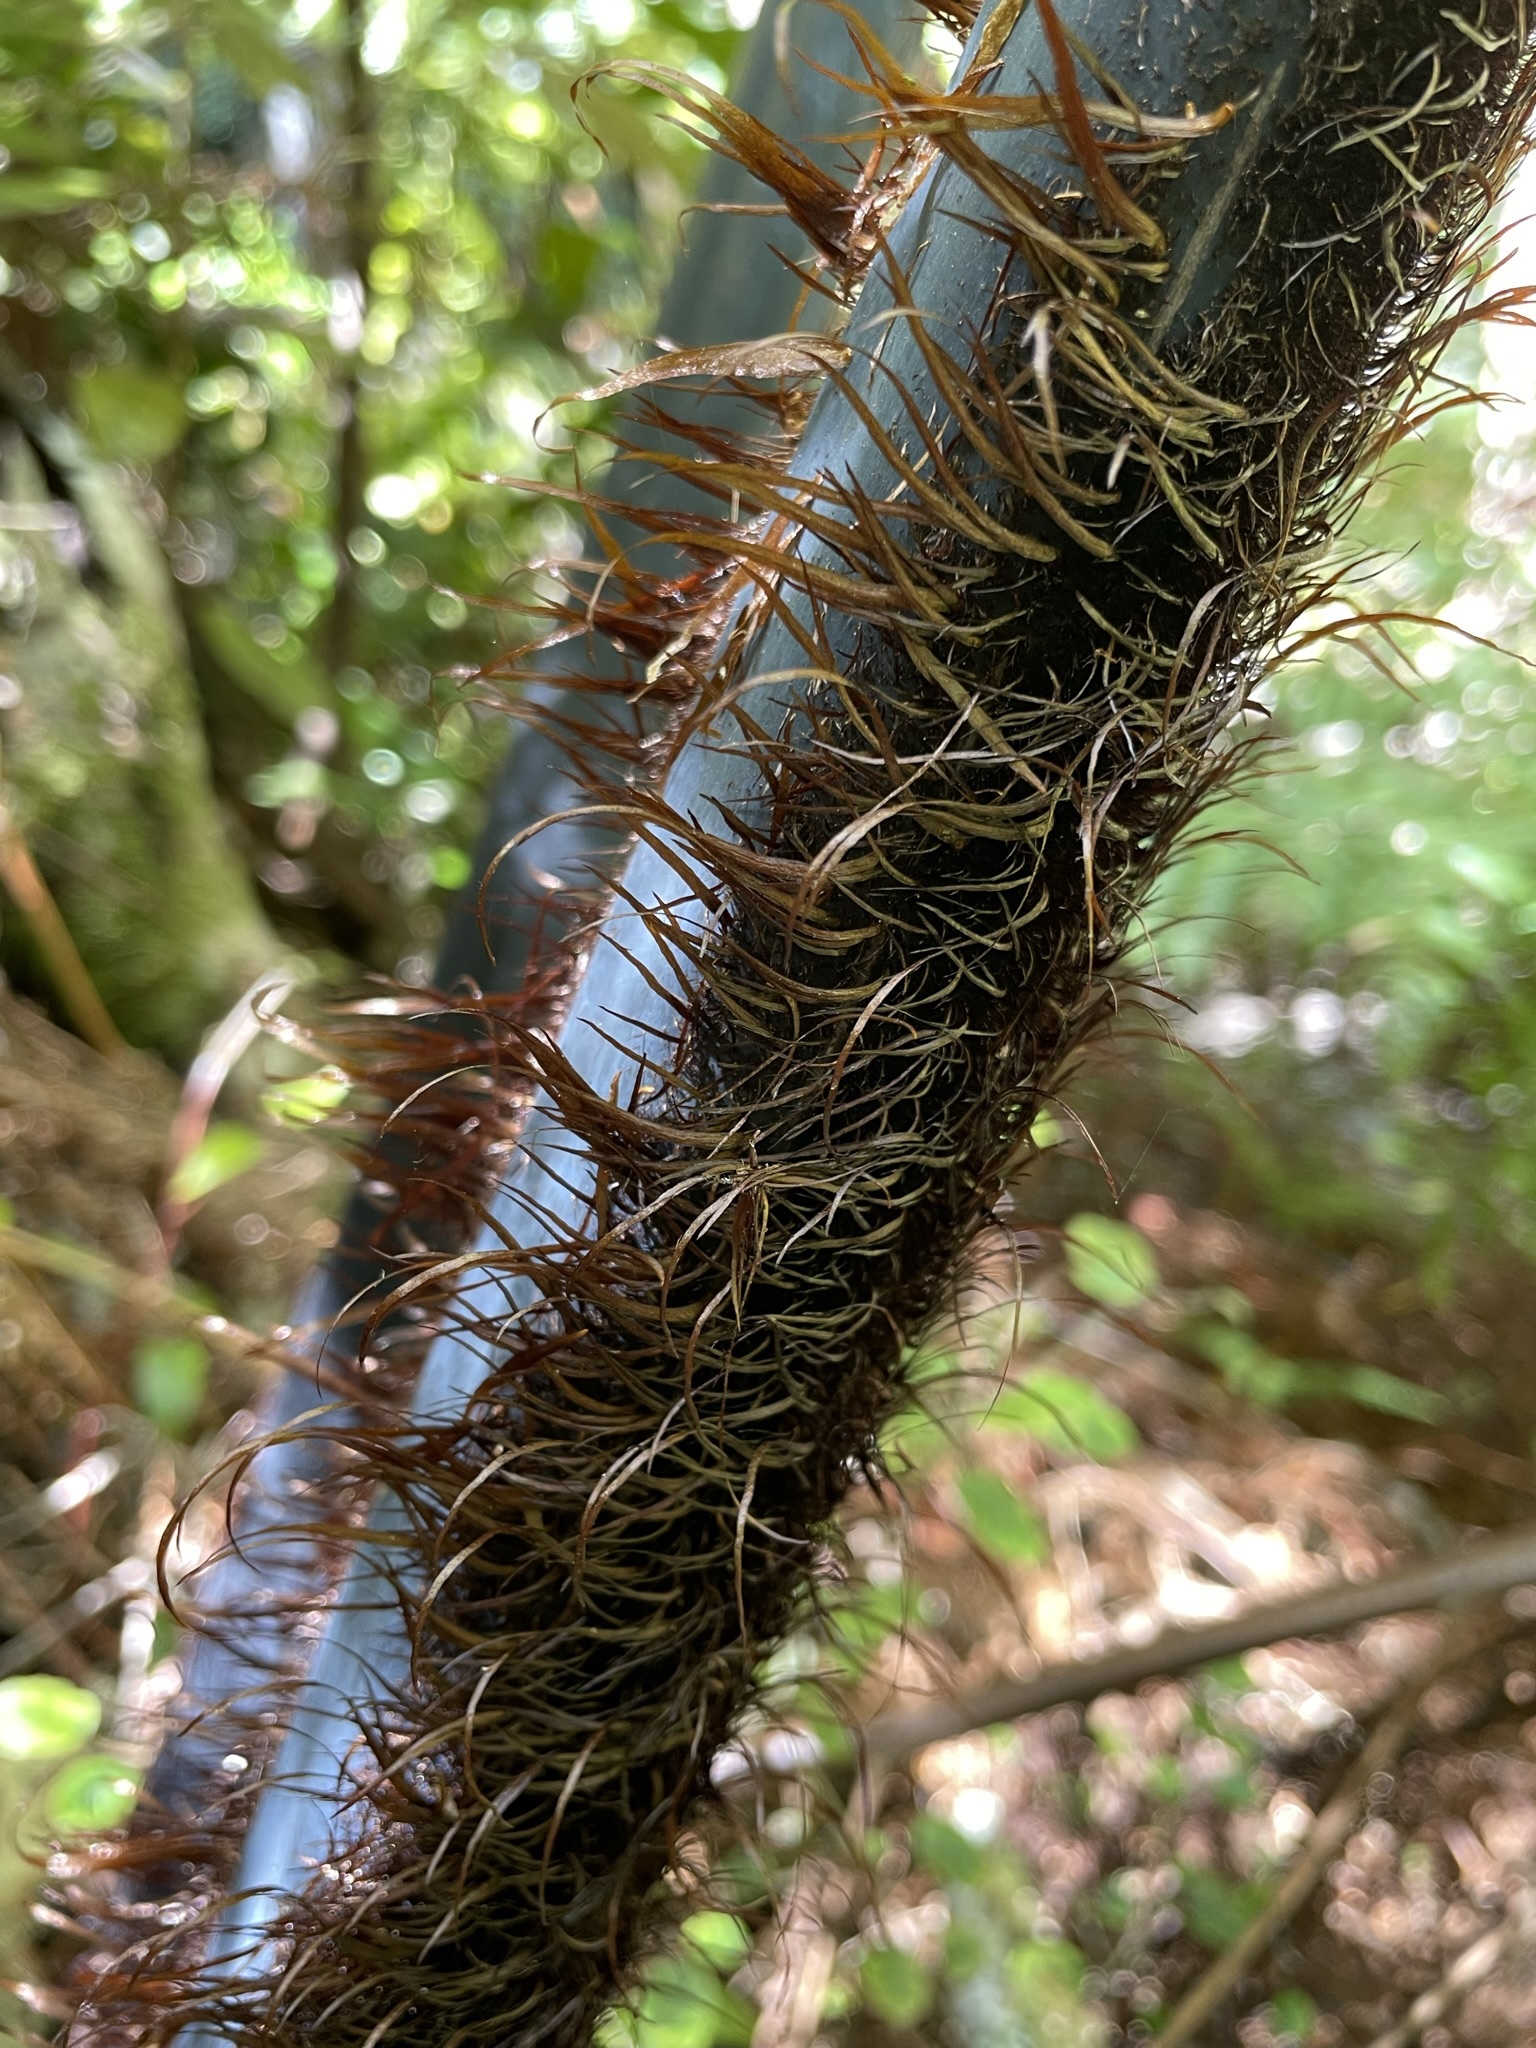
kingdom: Plantae
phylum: Tracheophyta
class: Polypodiopsida
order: Cyatheales
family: Cyatheaceae
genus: Sphaeropteris
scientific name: Sphaeropteris medullaris
